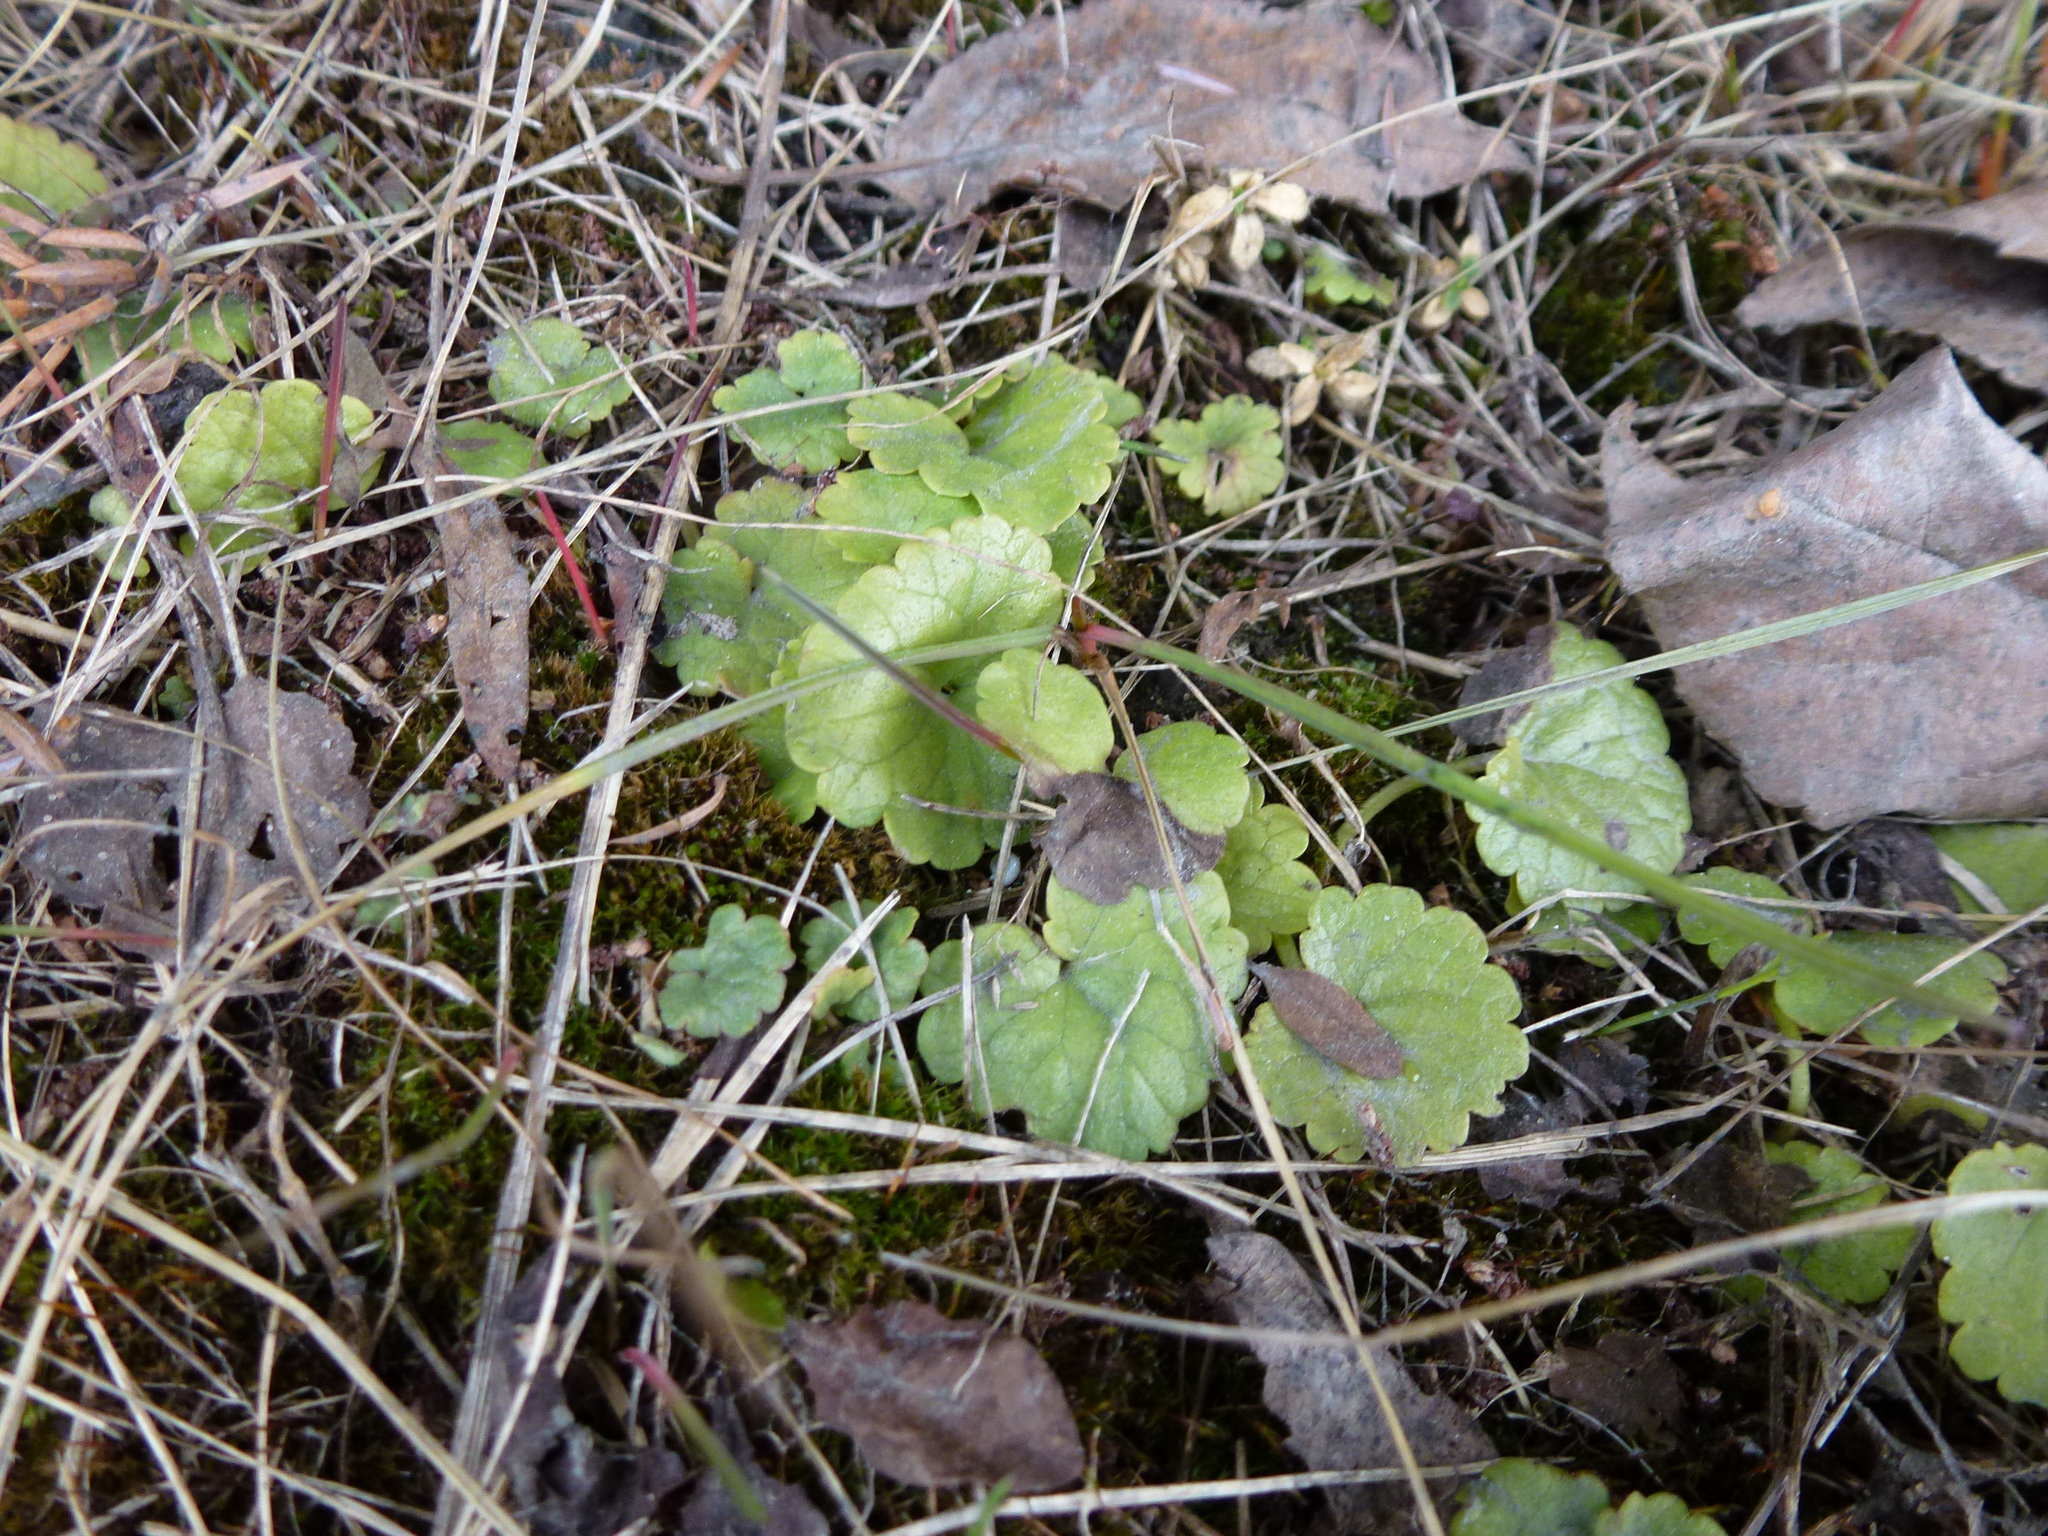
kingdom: Plantae
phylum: Tracheophyta
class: Magnoliopsida
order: Lamiales
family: Lamiaceae
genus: Glechoma
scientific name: Glechoma hederacea
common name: Ground ivy
